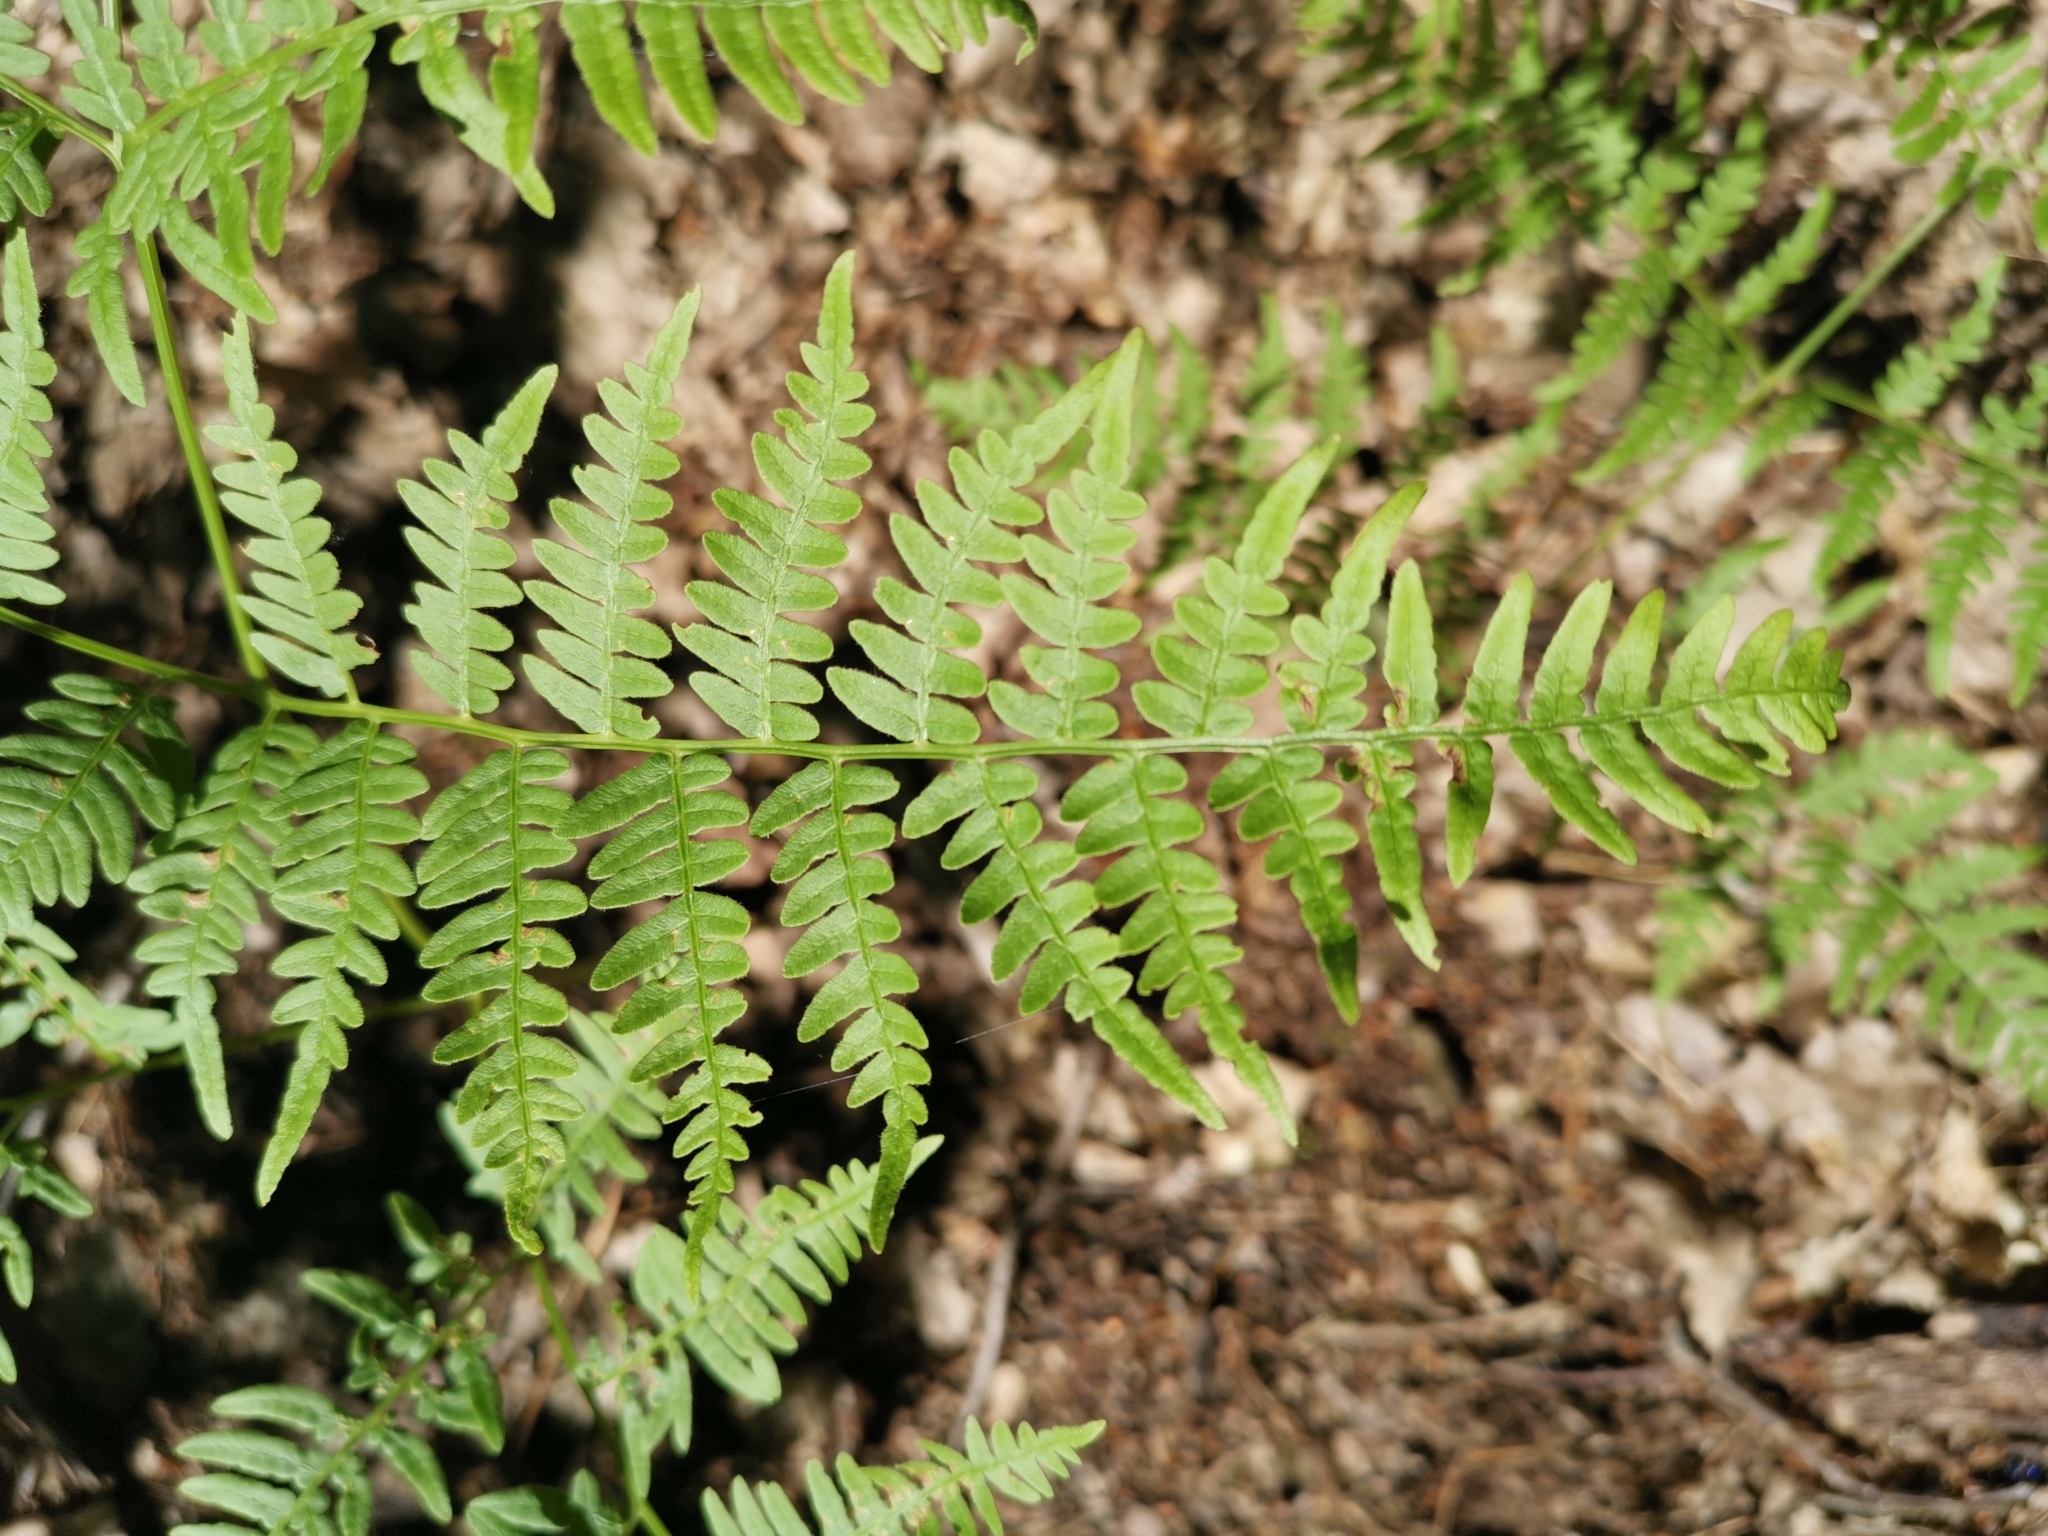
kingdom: Plantae
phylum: Tracheophyta
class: Polypodiopsida
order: Polypodiales
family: Dennstaedtiaceae
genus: Pteridium
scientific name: Pteridium aquilinum
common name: Bracken
